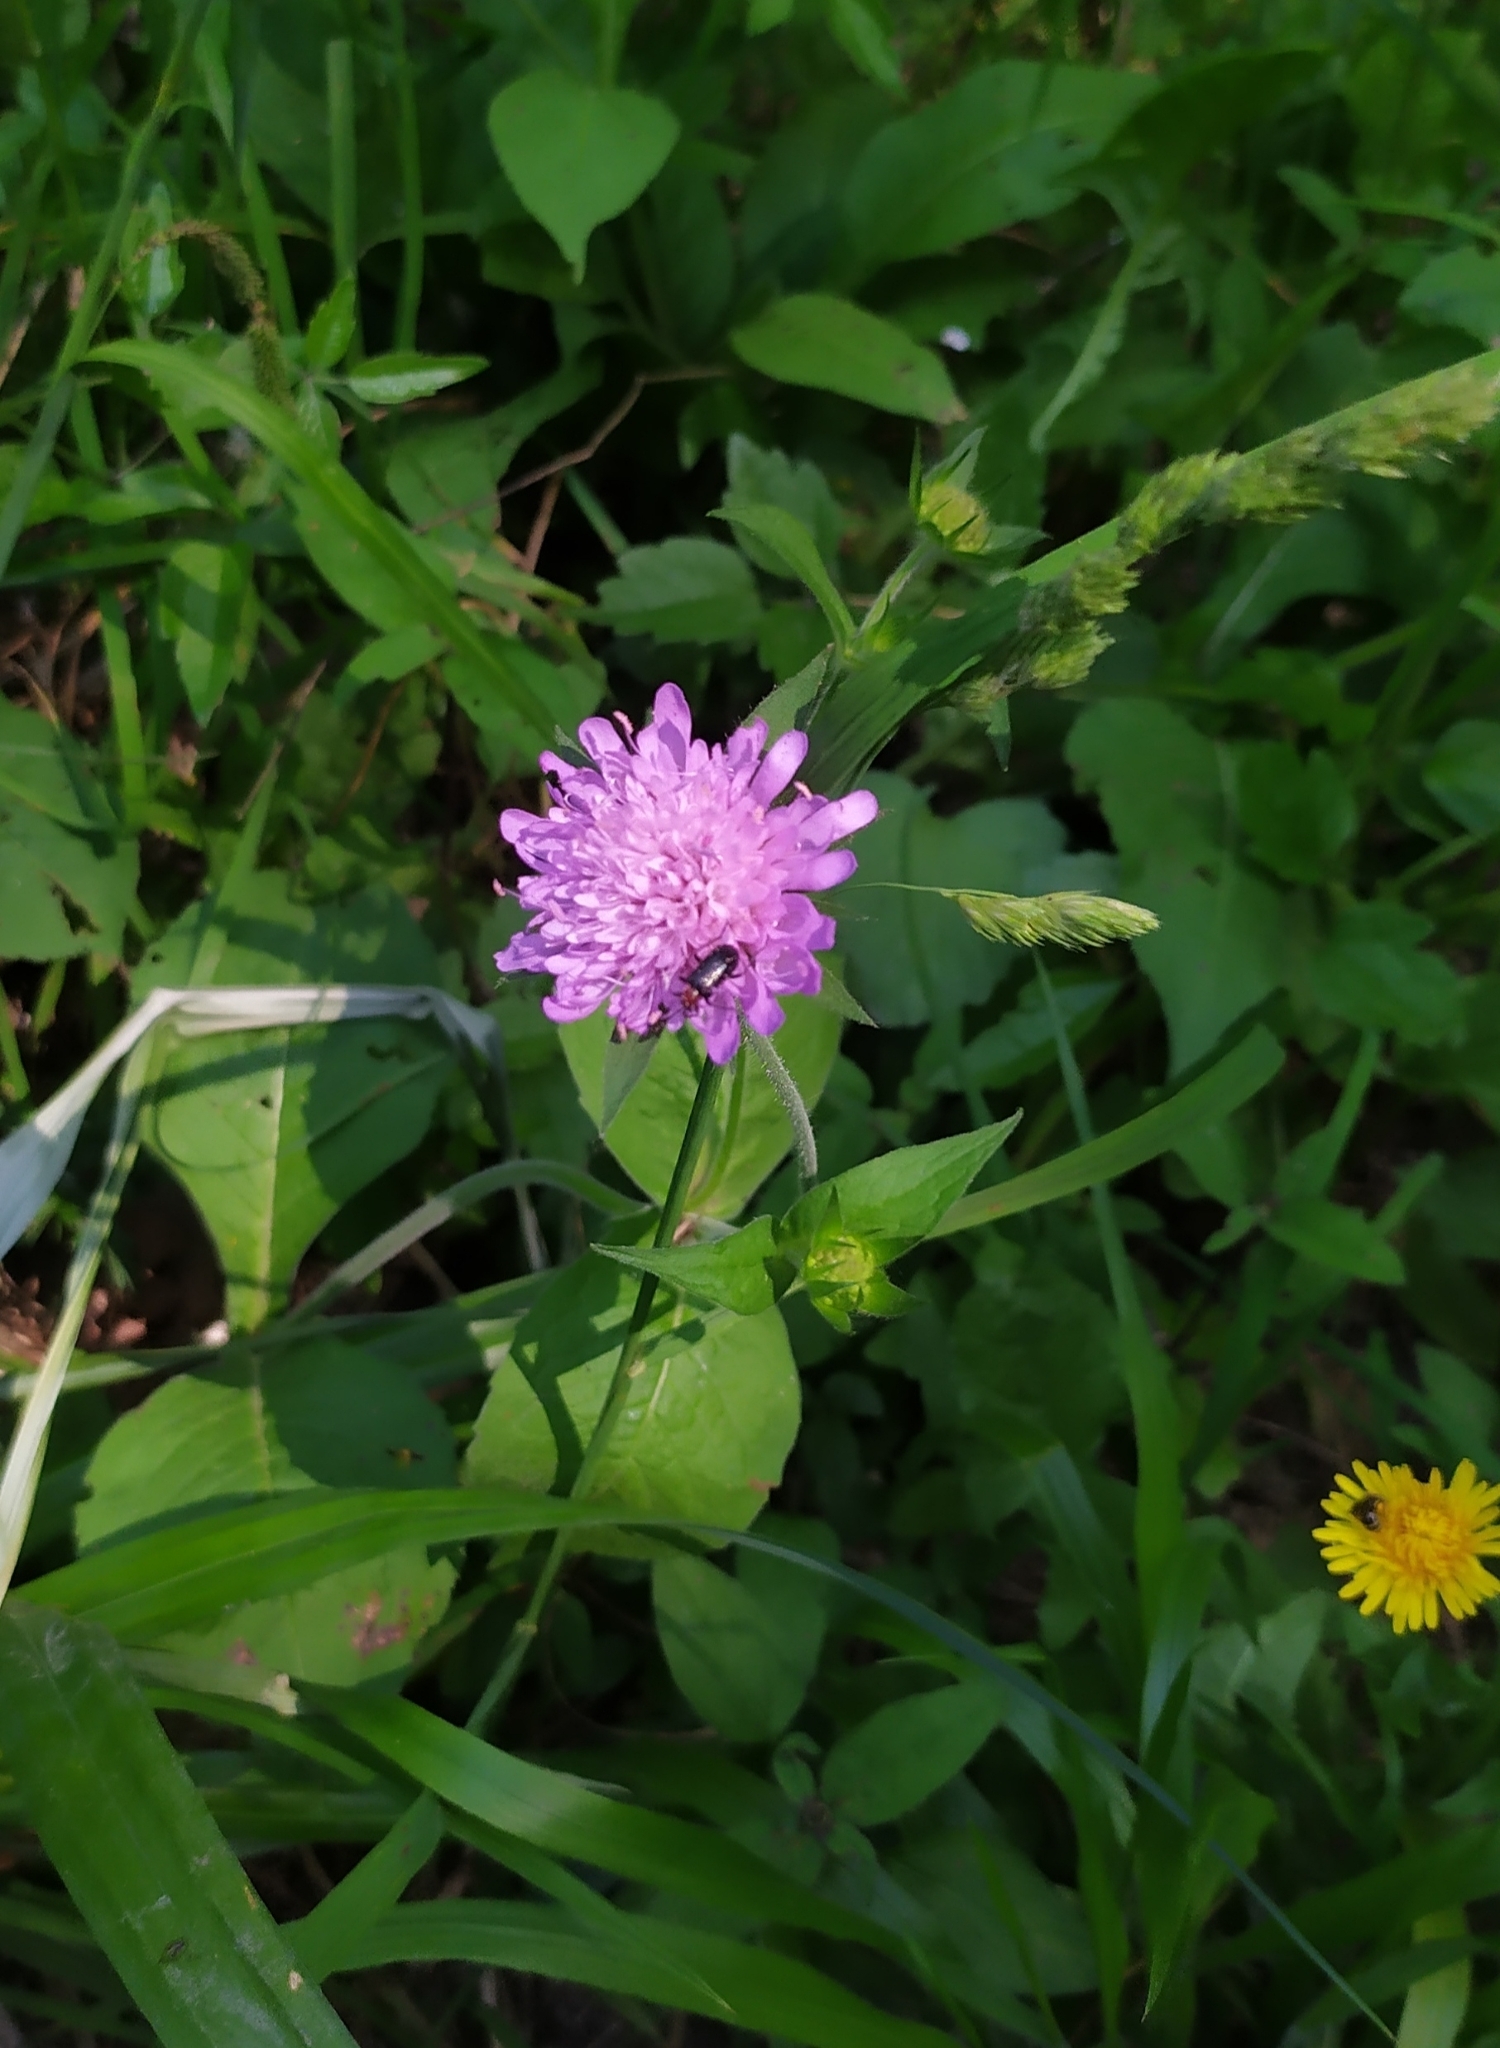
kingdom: Animalia
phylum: Arthropoda
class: Insecta
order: Coleoptera
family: Cerambycidae
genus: Dinoptera
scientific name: Dinoptera collaris
